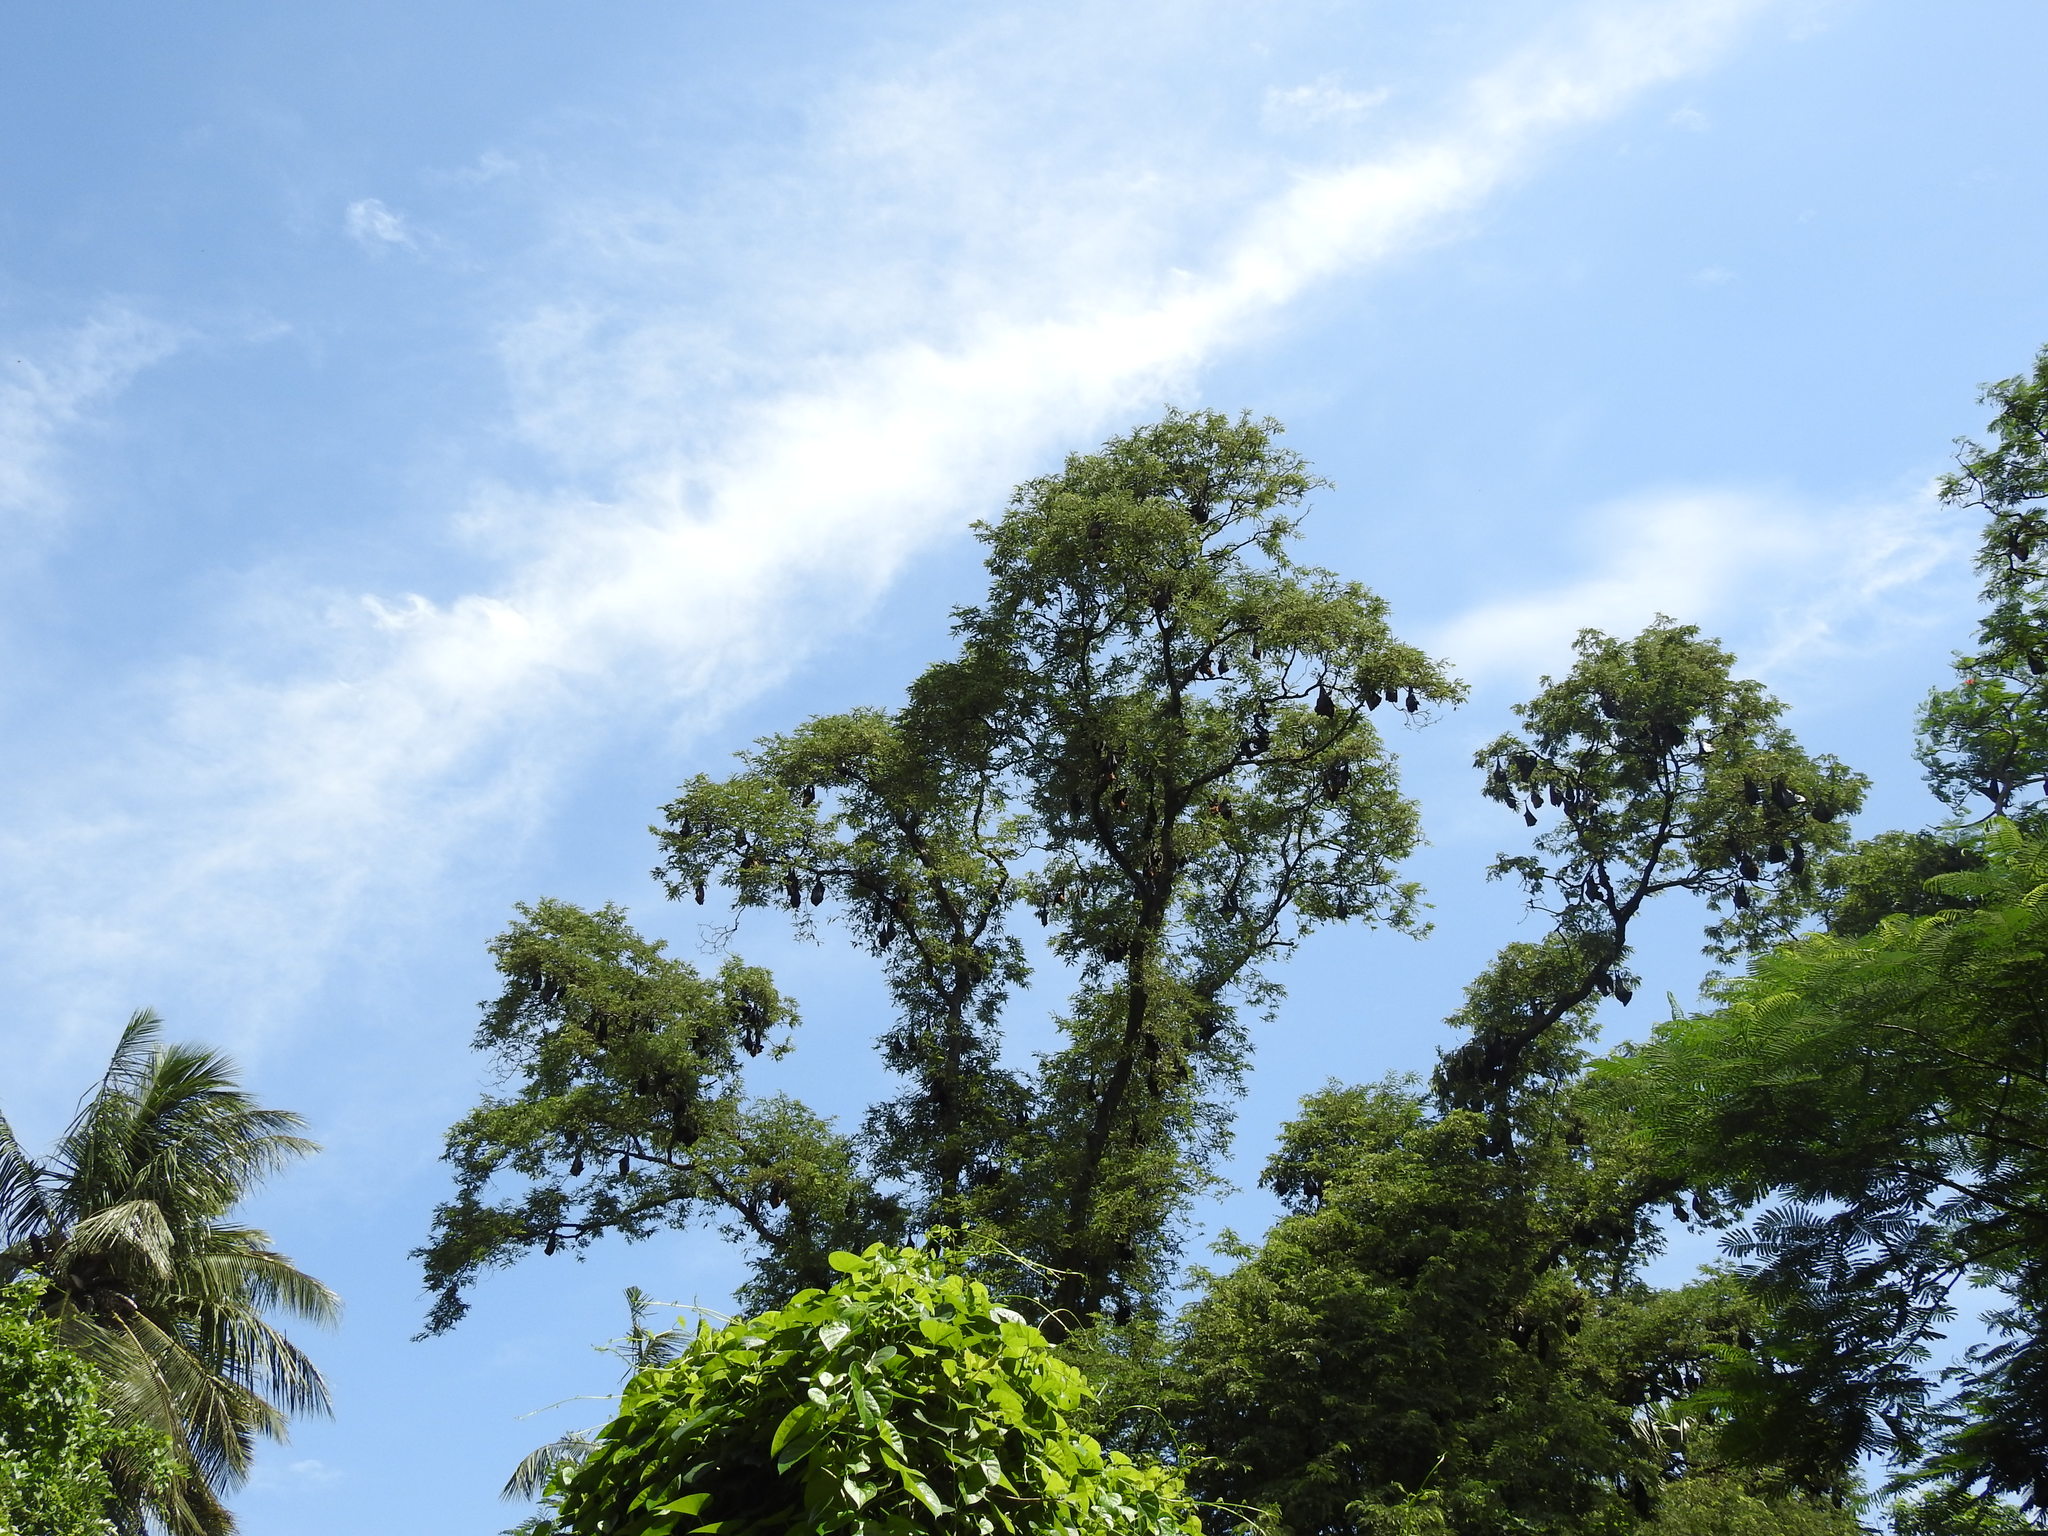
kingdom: Animalia
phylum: Chordata
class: Mammalia
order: Chiroptera
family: Pteropodidae
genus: Pteropus
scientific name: Pteropus vampyrus
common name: Large flying fox
